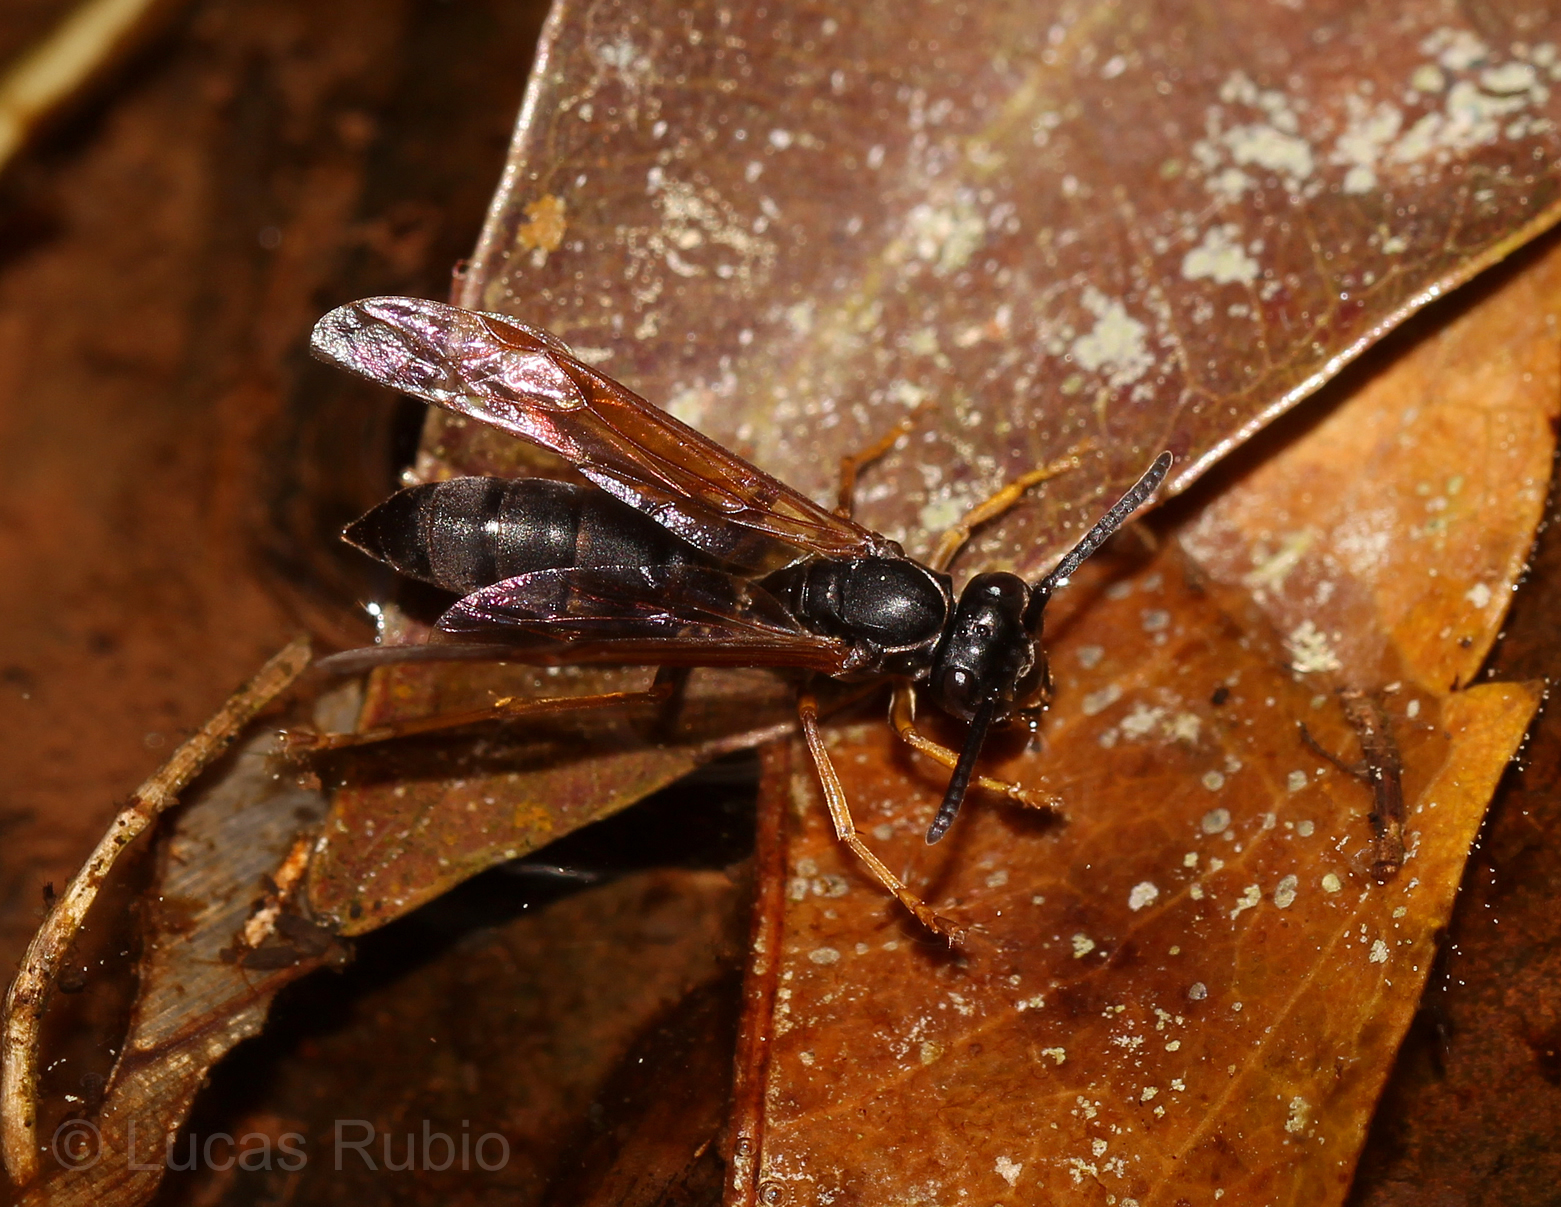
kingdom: Animalia
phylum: Arthropoda
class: Insecta
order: Hymenoptera
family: Vespidae
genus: Agelaia
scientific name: Agelaia angulata
